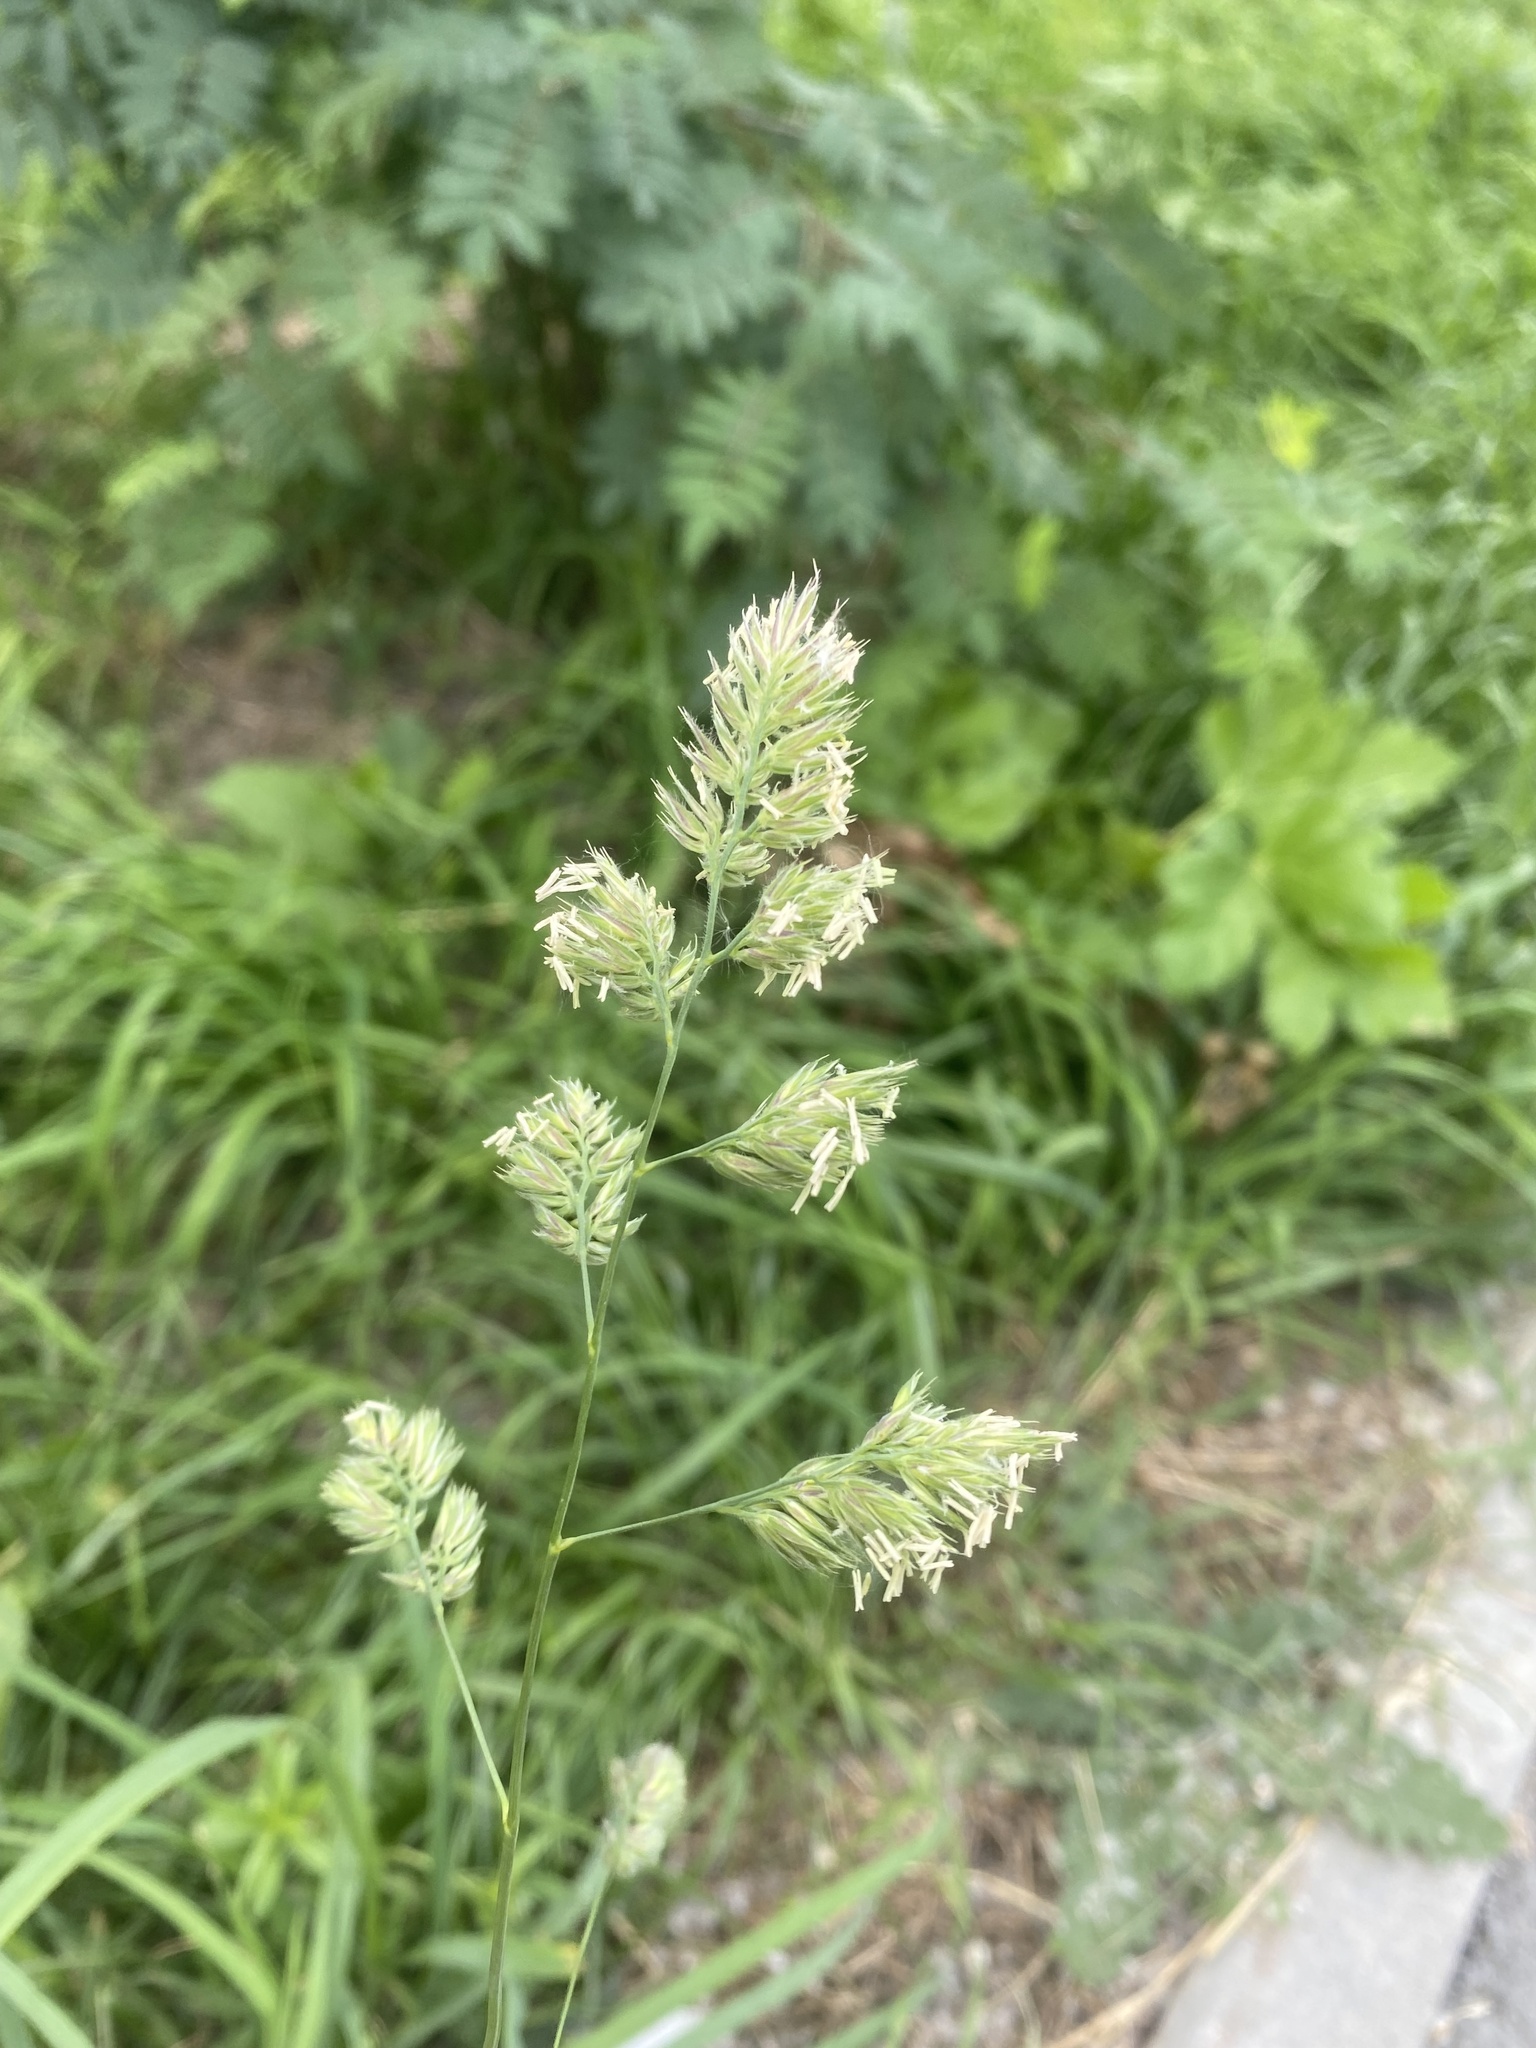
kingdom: Plantae
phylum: Tracheophyta
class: Liliopsida
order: Poales
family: Poaceae
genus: Dactylis
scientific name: Dactylis glomerata
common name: Orchardgrass
